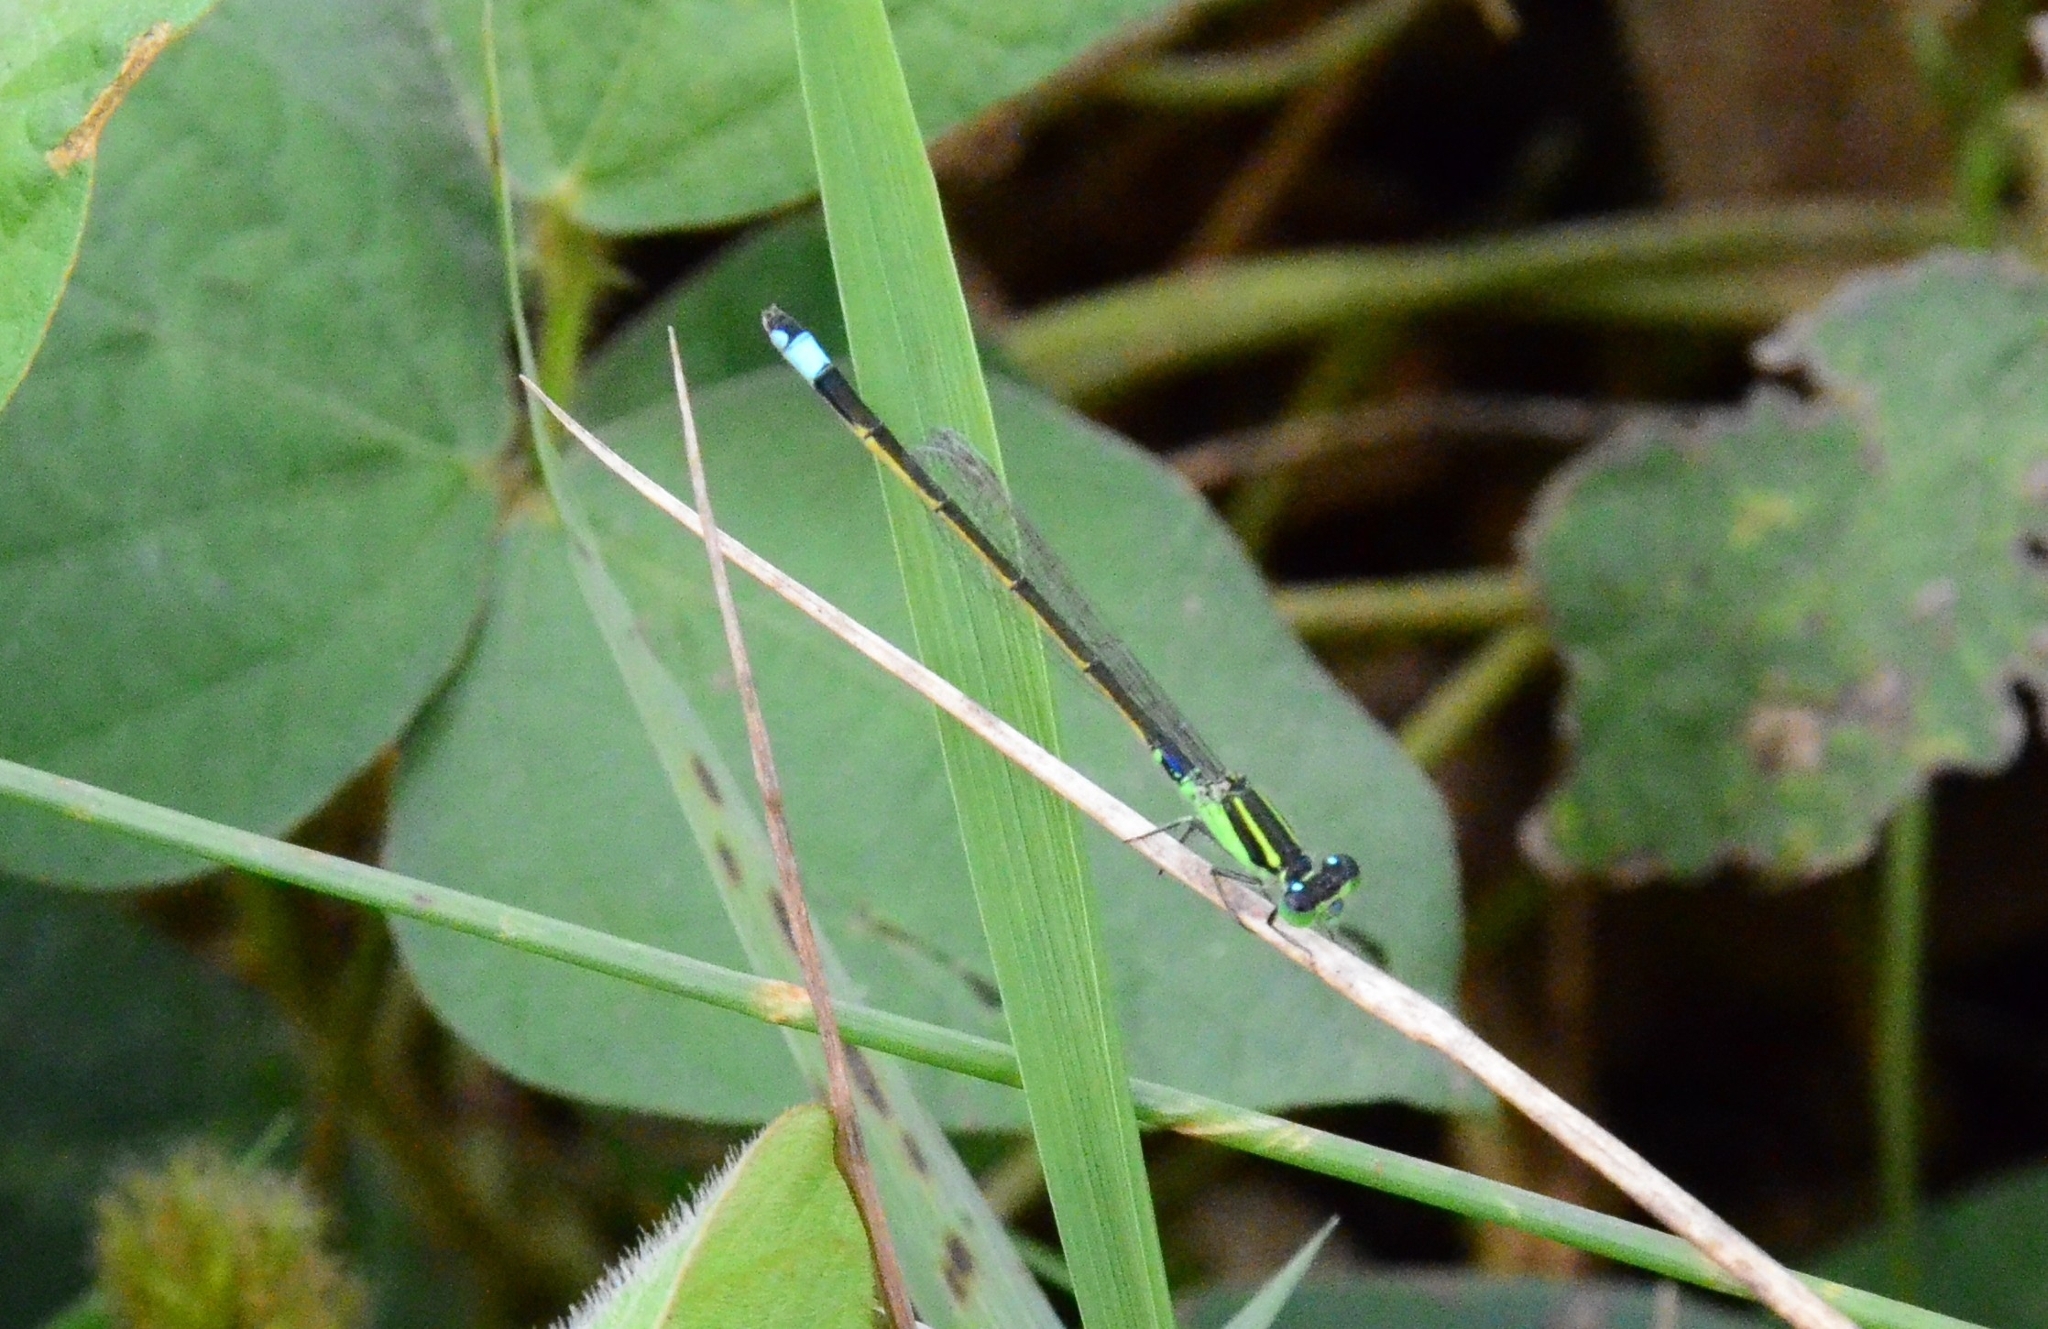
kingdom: Animalia
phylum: Arthropoda
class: Insecta
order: Odonata
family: Coenagrionidae
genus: Ischnura
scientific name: Ischnura senegalensis
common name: Tropical bluetail
